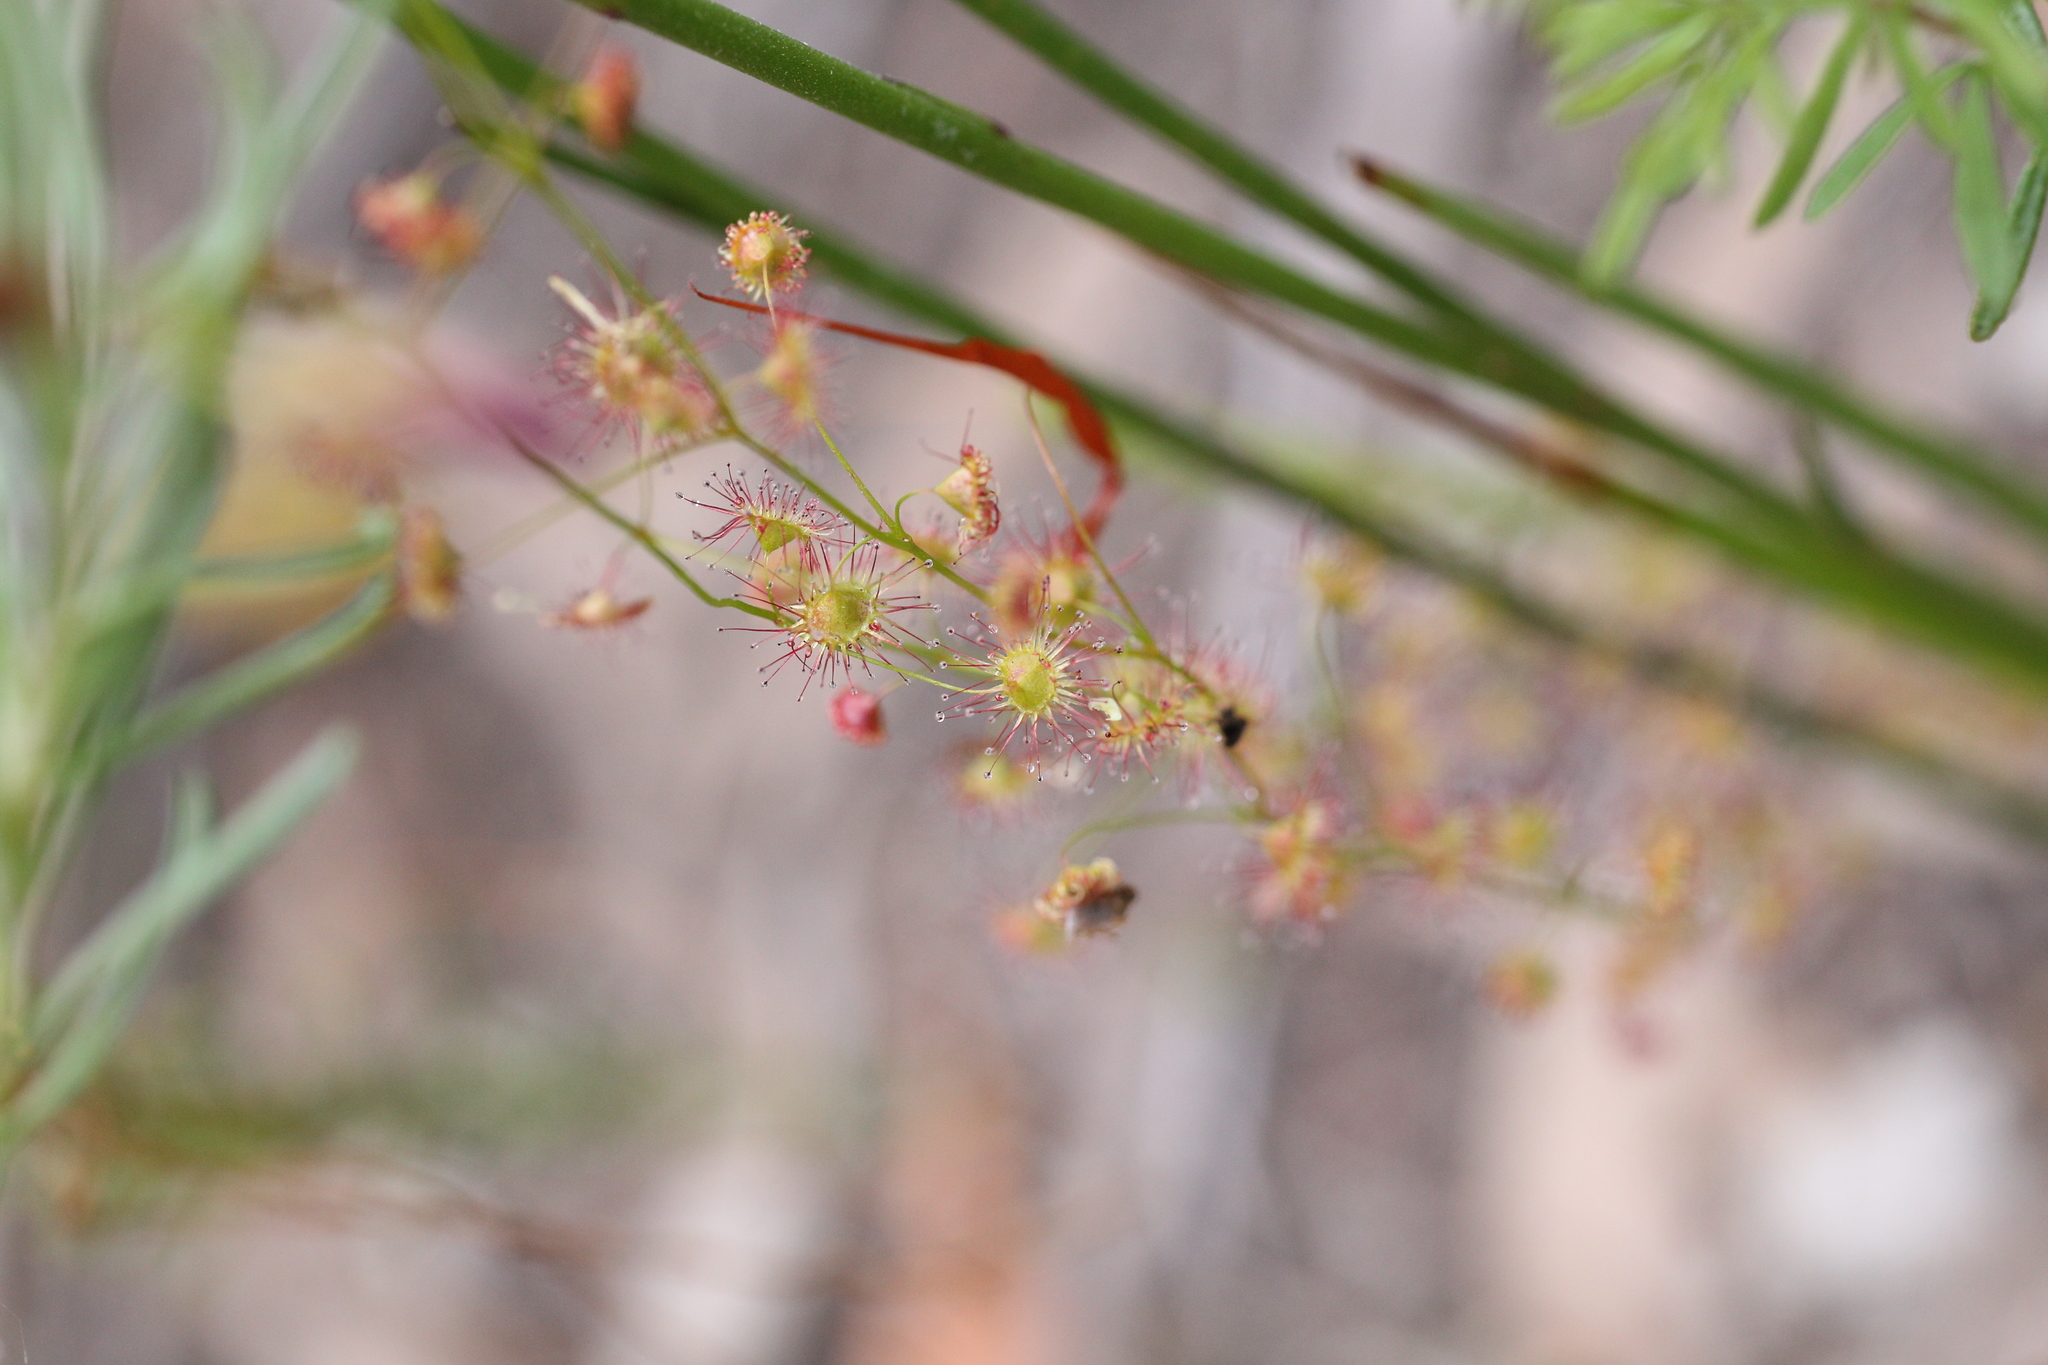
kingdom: Plantae
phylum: Tracheophyta
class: Magnoliopsida
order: Caryophyllales
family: Droseraceae
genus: Drosera
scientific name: Drosera
